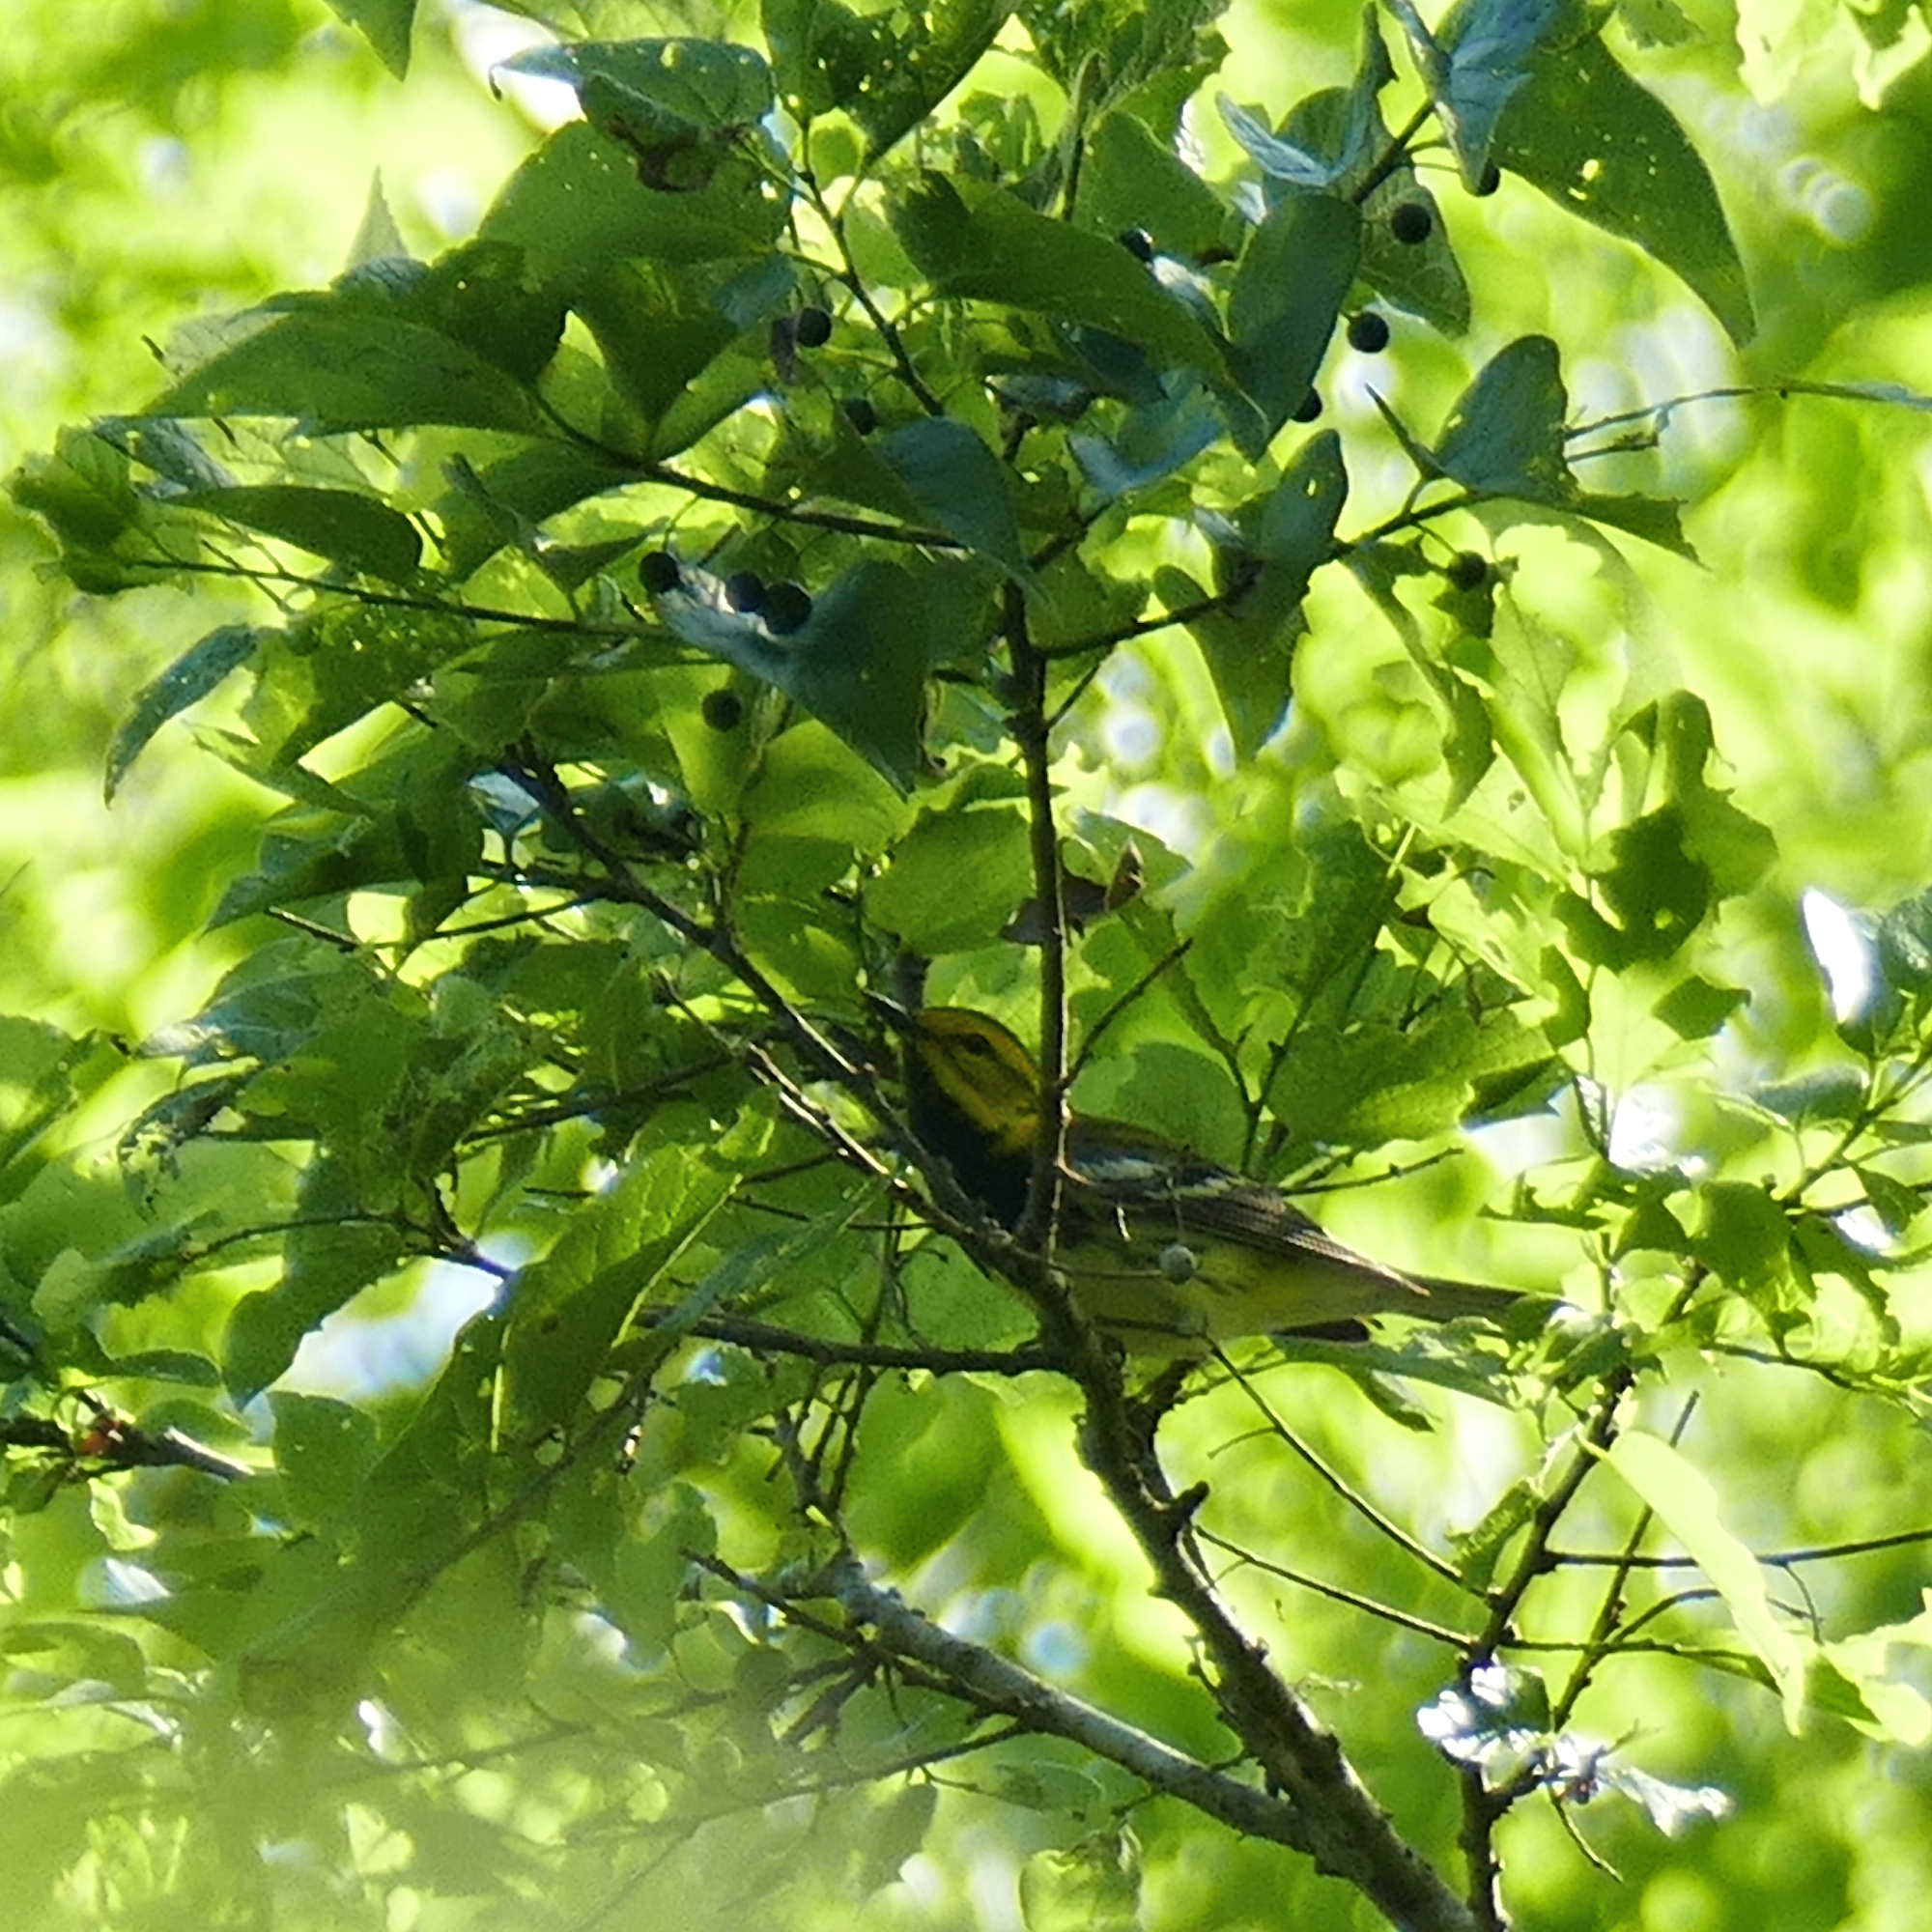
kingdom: Animalia
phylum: Chordata
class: Aves
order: Passeriformes
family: Parulidae
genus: Setophaga
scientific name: Setophaga virens
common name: Black-throated green warbler
